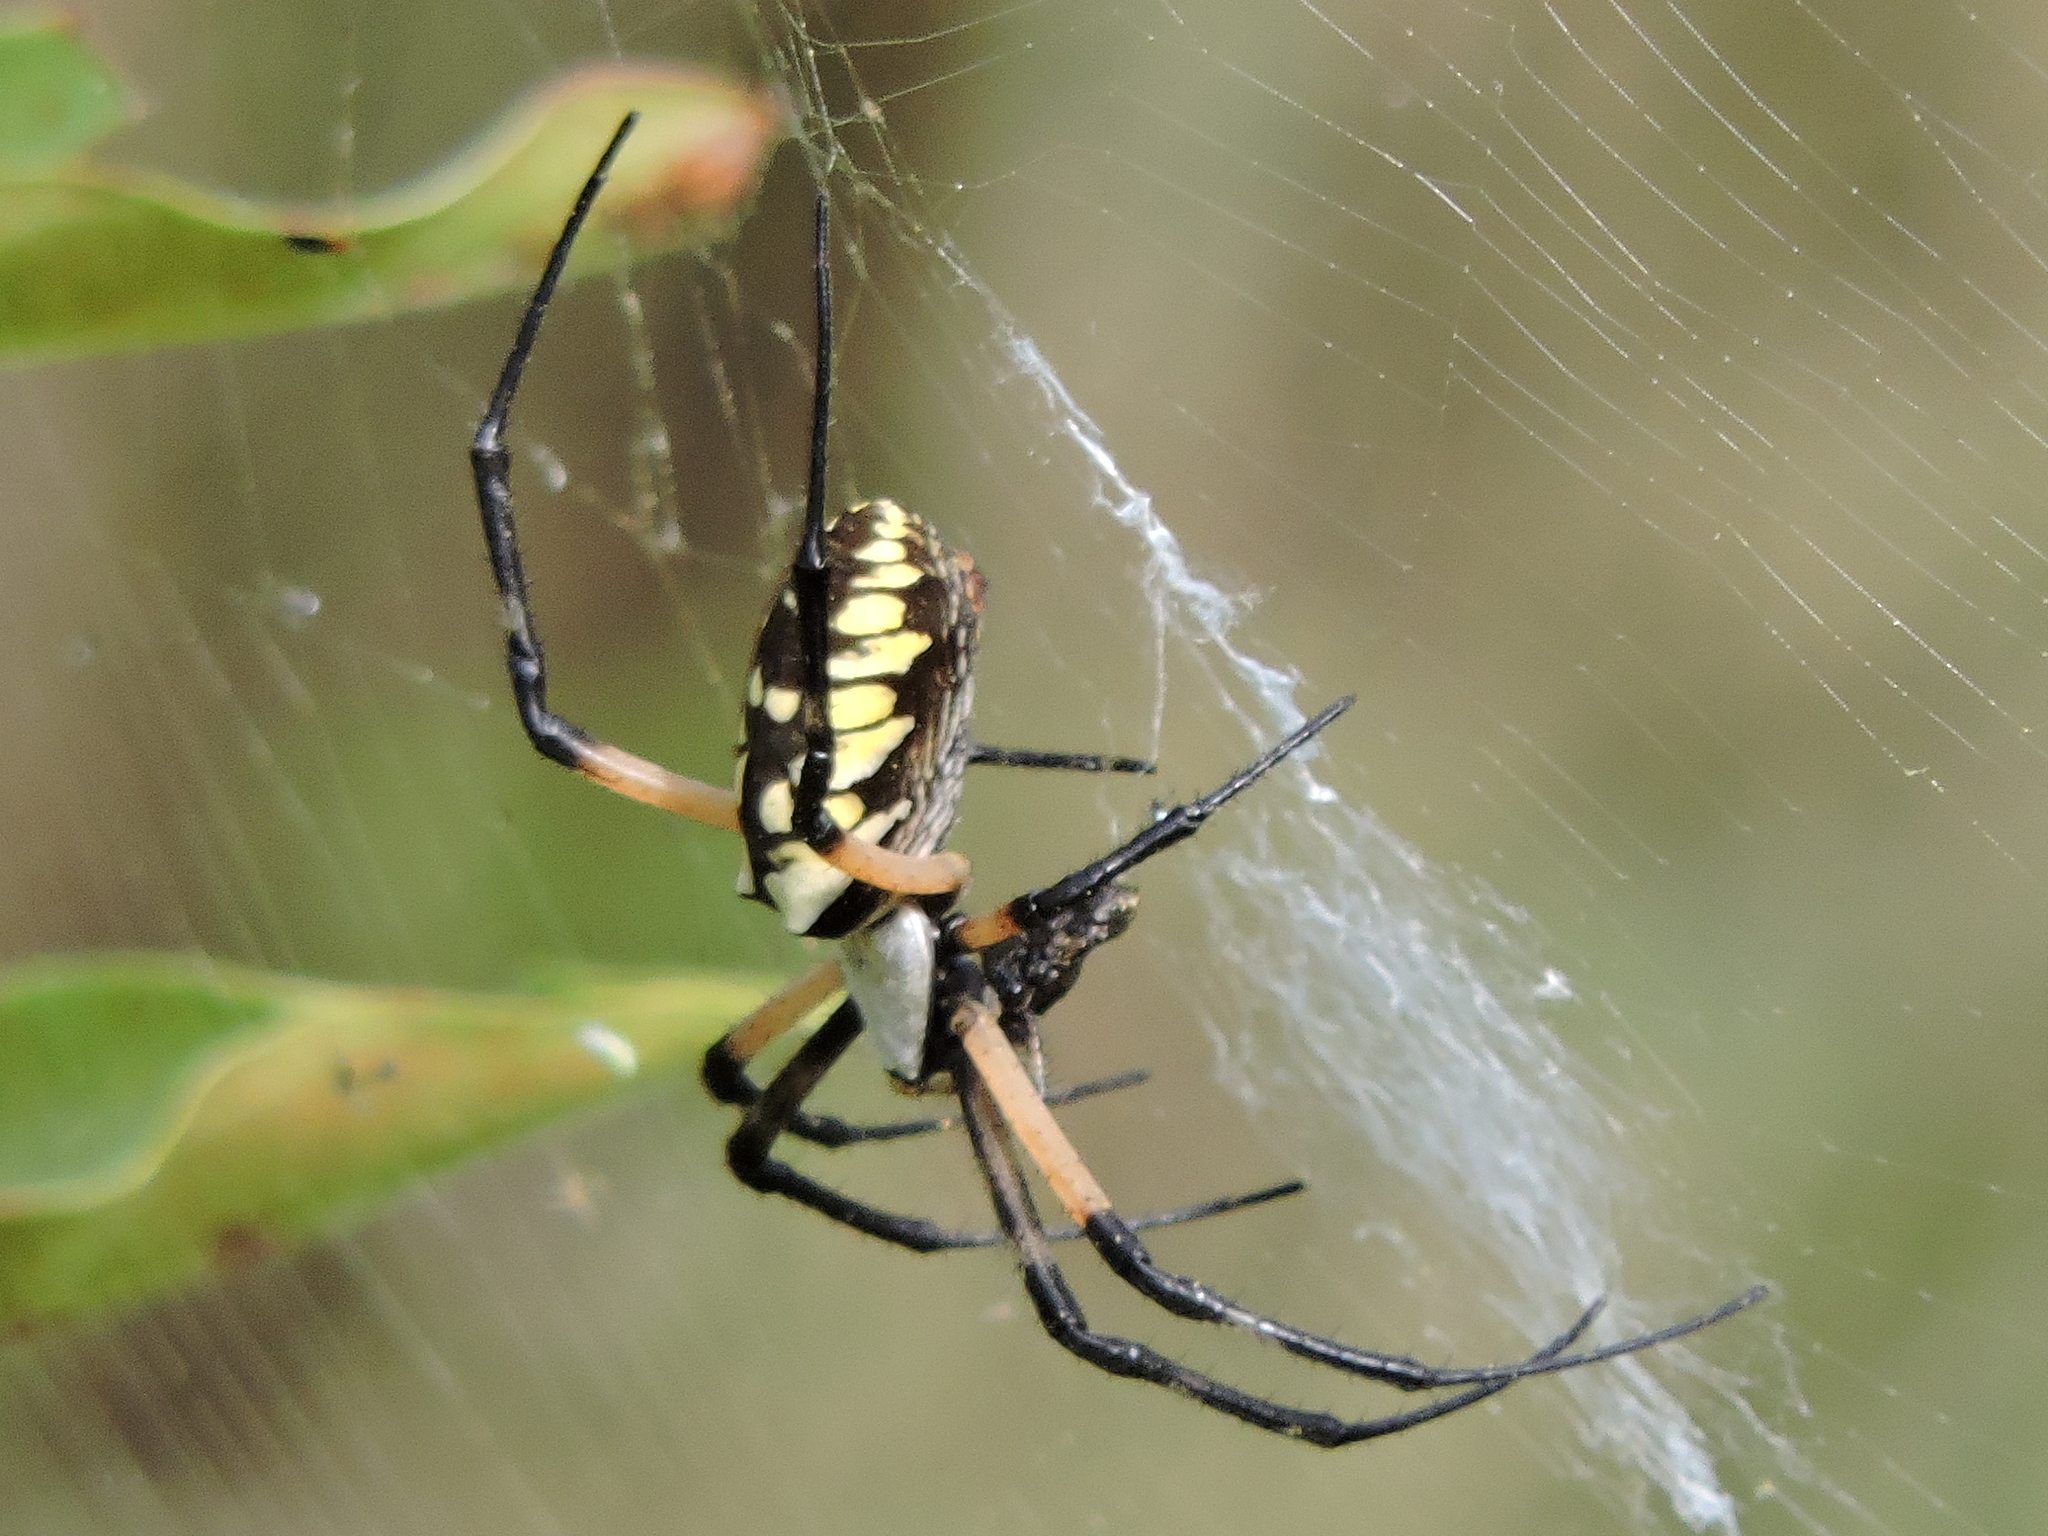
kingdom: Animalia
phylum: Arthropoda
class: Arachnida
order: Araneae
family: Araneidae
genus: Argiope
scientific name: Argiope aurantia
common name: Orb weavers
